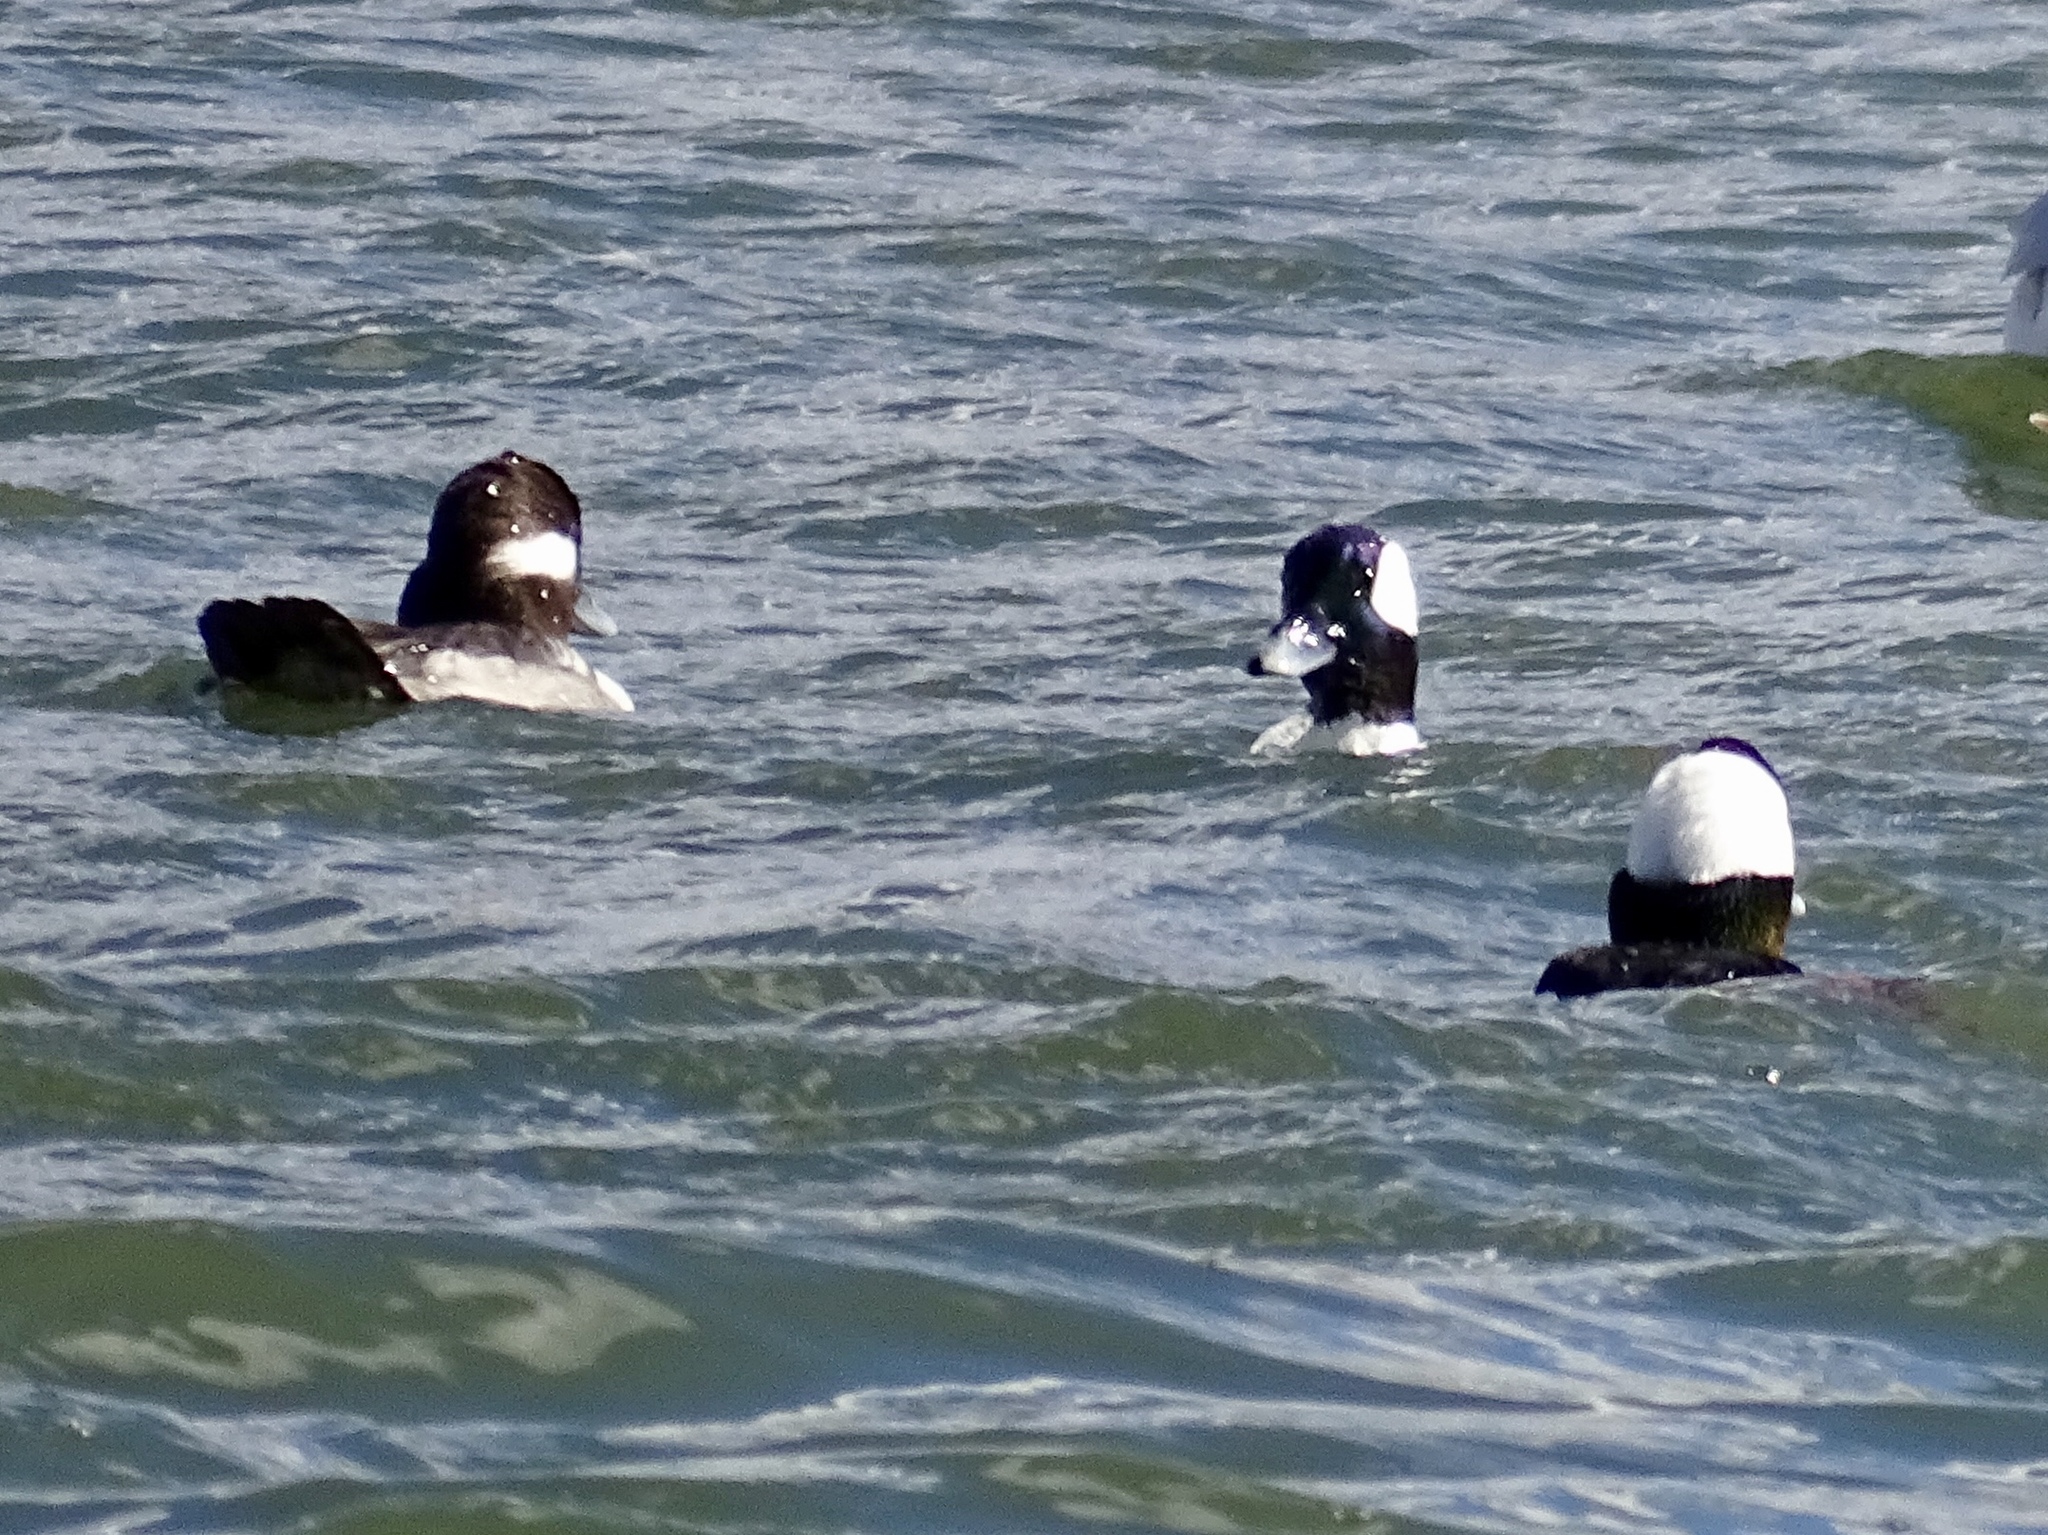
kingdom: Animalia
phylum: Chordata
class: Aves
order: Anseriformes
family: Anatidae
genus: Bucephala
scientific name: Bucephala albeola
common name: Bufflehead
